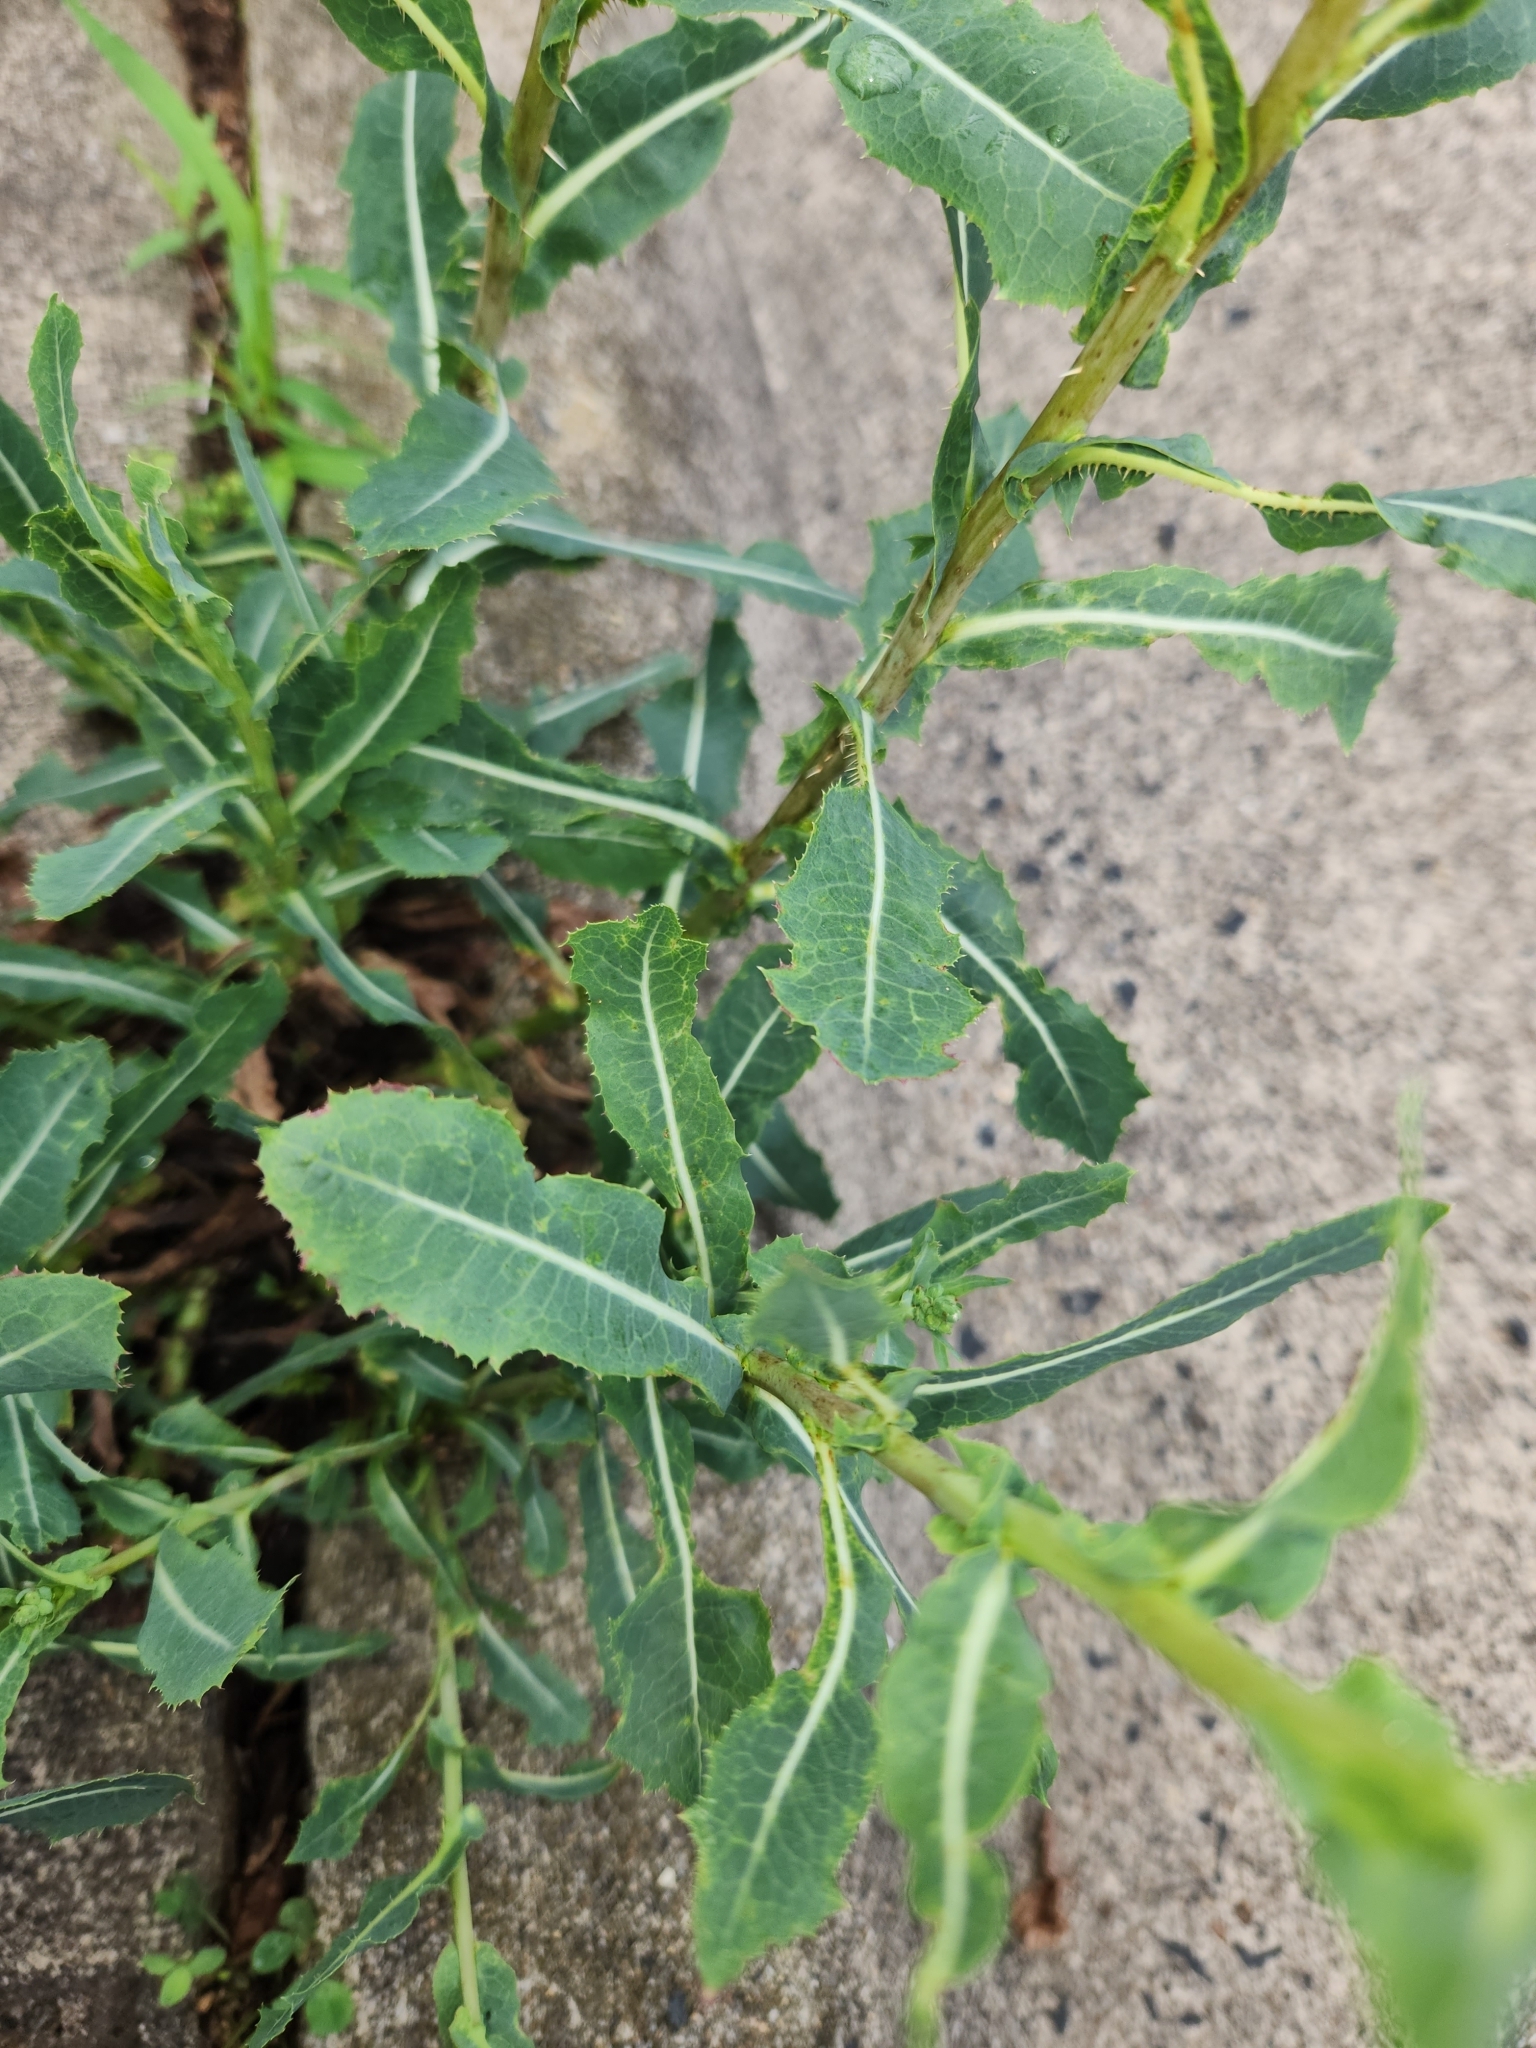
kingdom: Plantae
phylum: Tracheophyta
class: Magnoliopsida
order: Asterales
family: Asteraceae
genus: Lactuca
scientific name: Lactuca serriola
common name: Prickly lettuce
